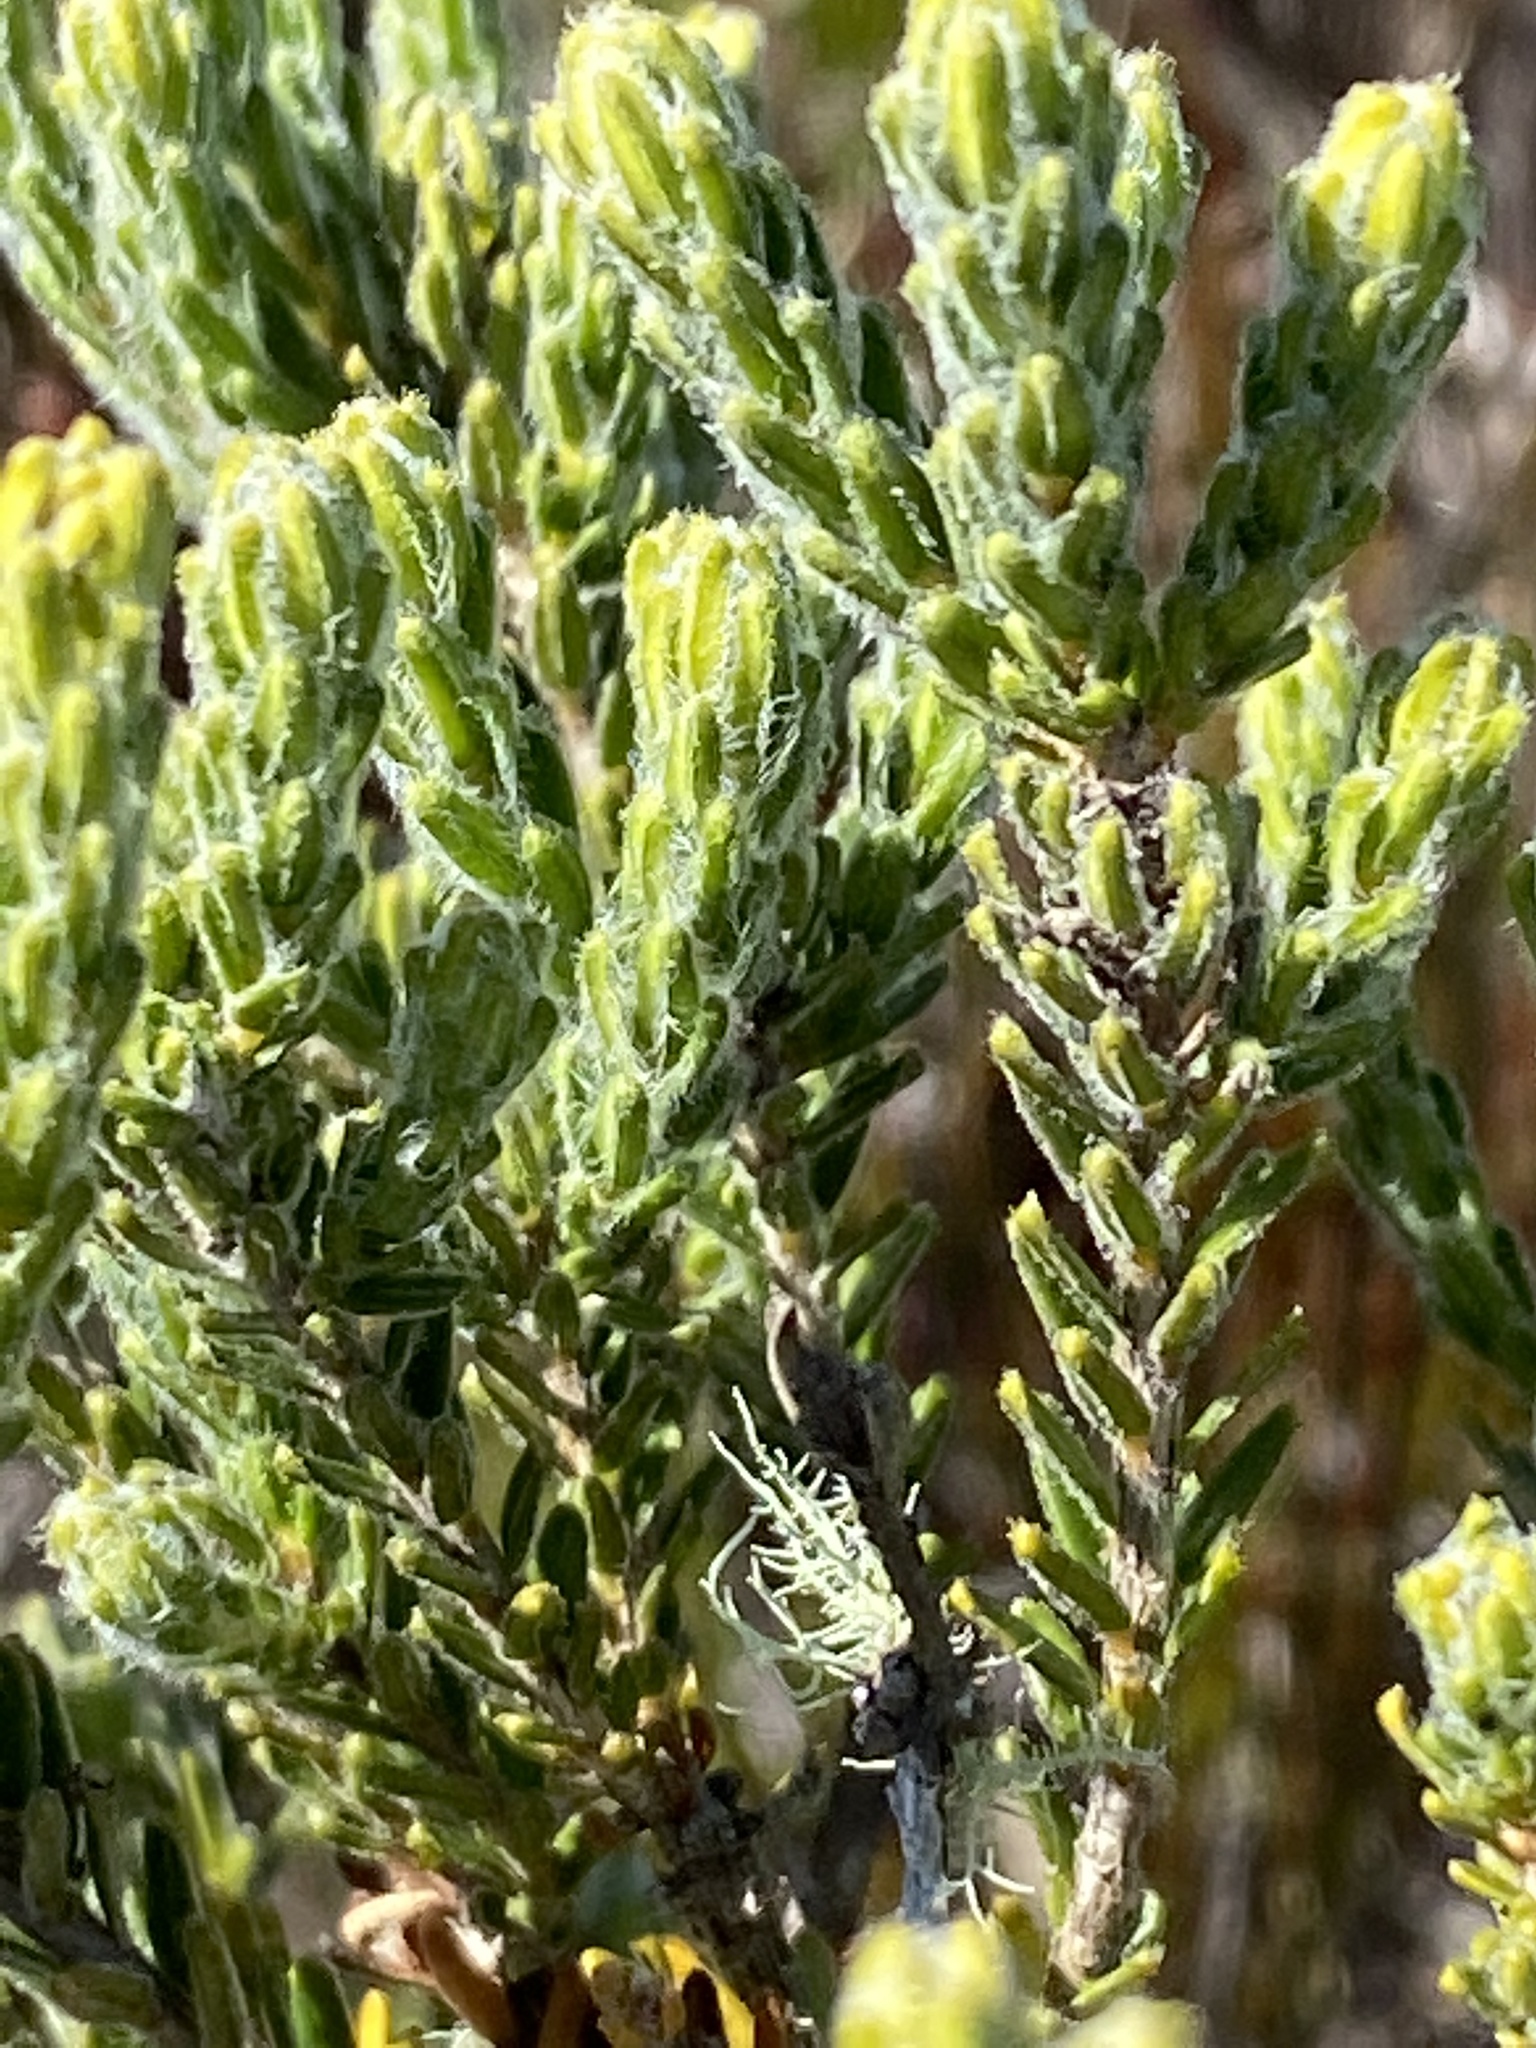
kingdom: Plantae
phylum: Tracheophyta
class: Magnoliopsida
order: Sapindales
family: Rutaceae
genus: Agathosma
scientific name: Agathosma serpyllacea
